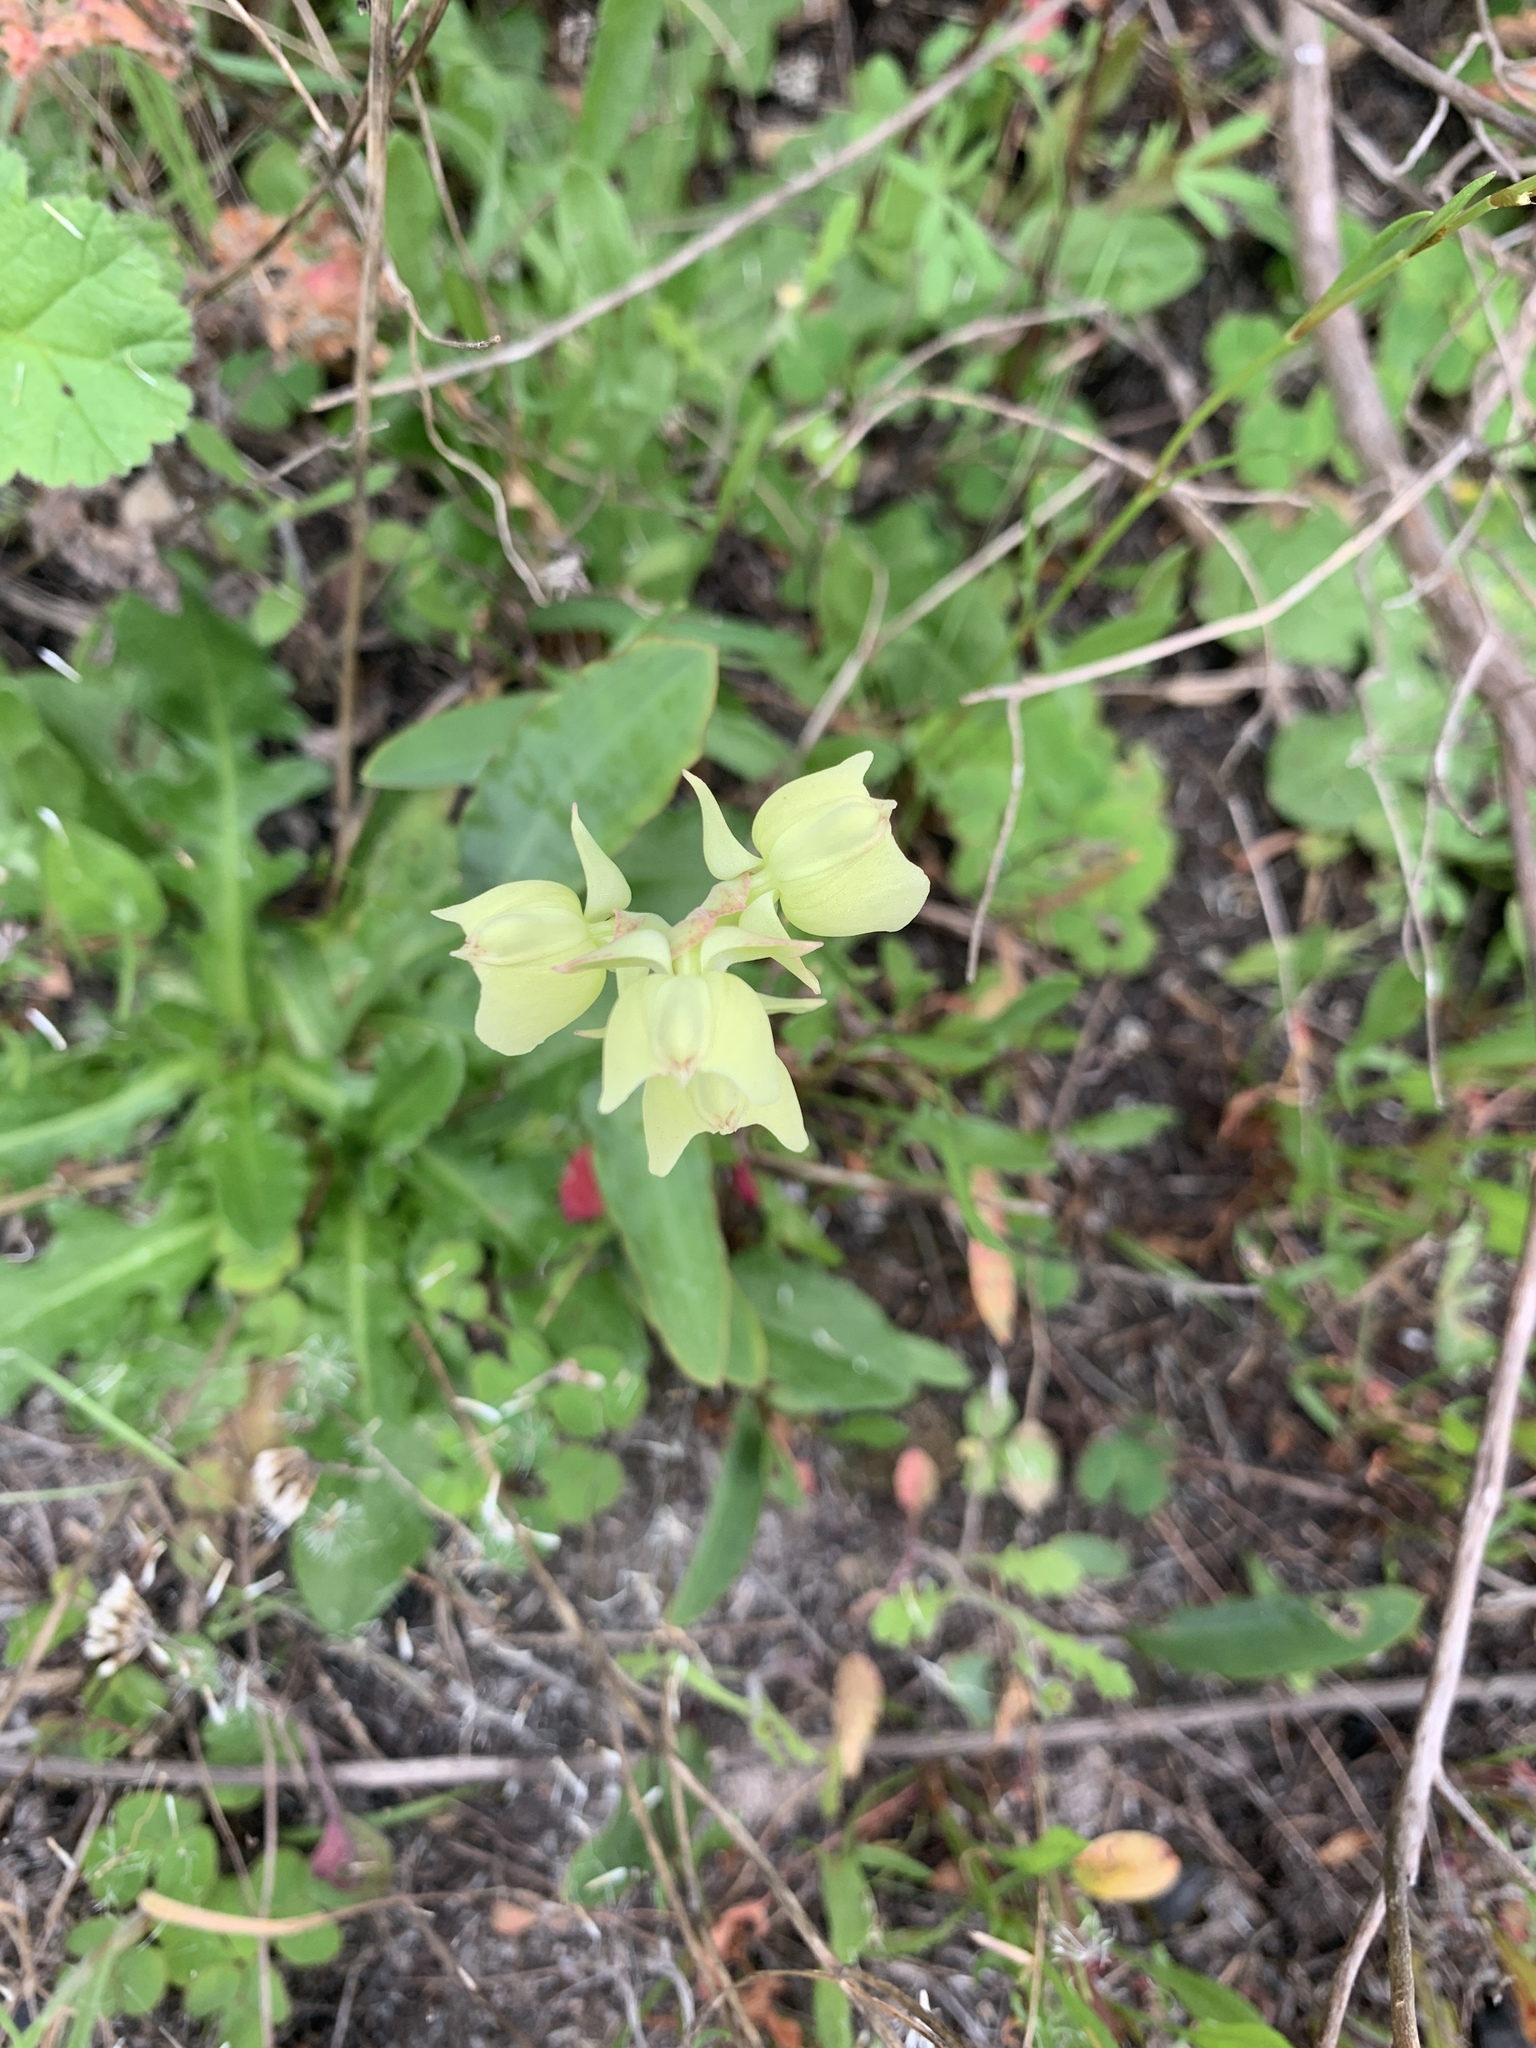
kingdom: Plantae
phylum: Tracheophyta
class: Liliopsida
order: Asparagales
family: Orchidaceae
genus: Pterygodium
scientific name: Pterygodium catholicum
